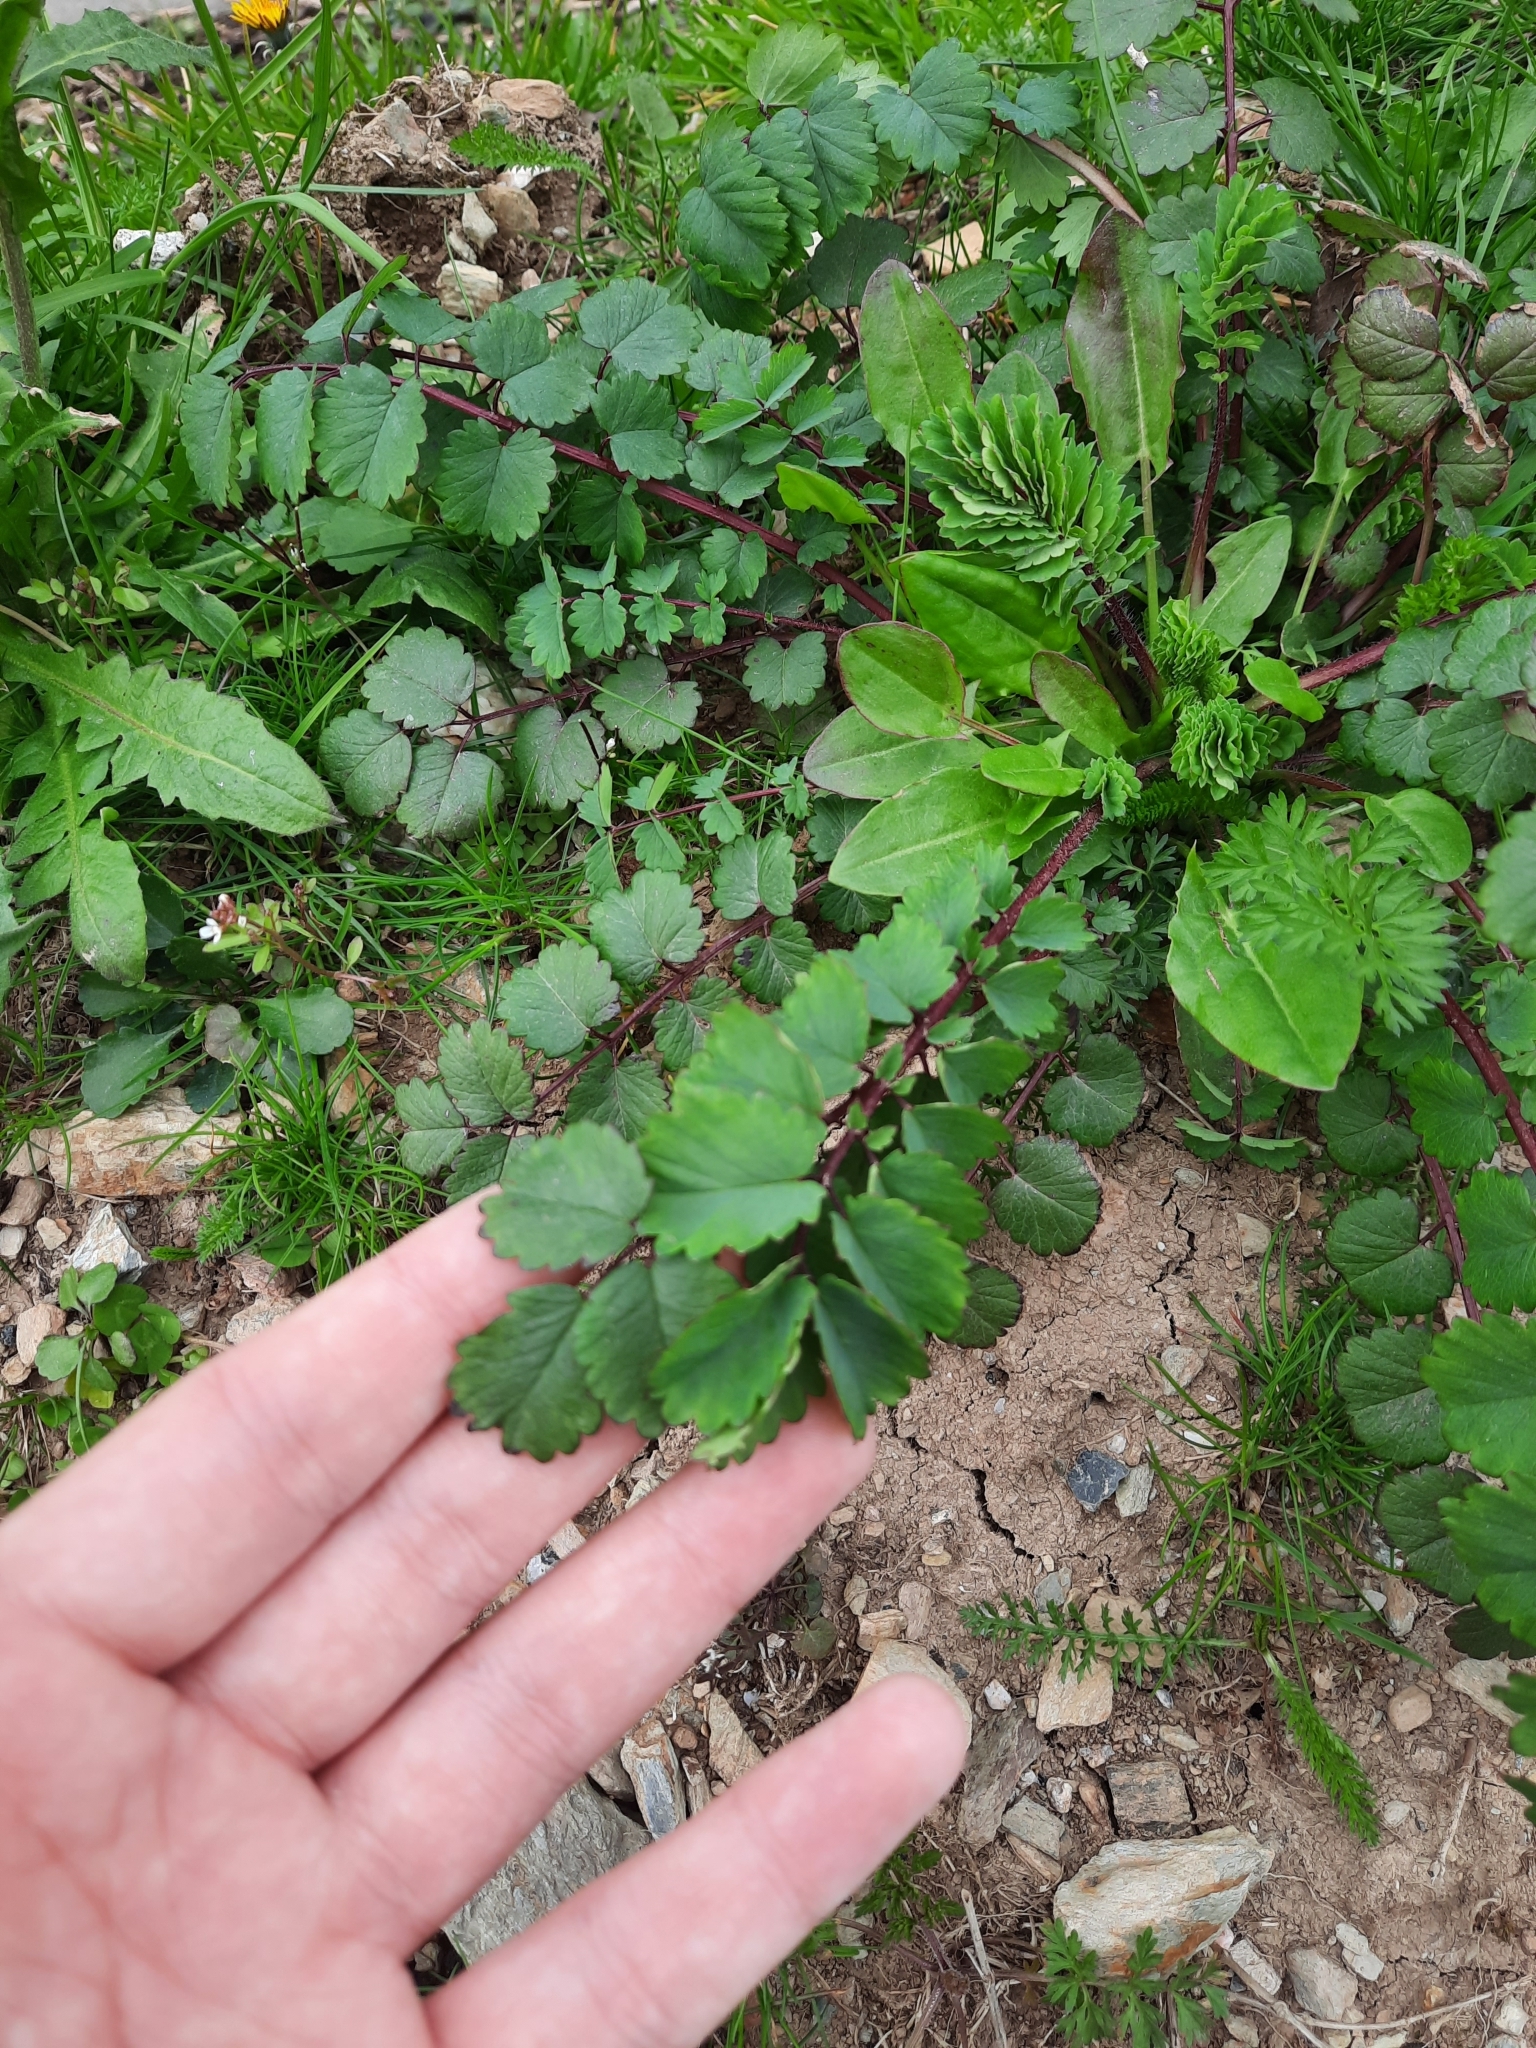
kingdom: Plantae
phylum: Tracheophyta
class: Magnoliopsida
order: Rosales
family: Rosaceae
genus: Poterium
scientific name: Poterium sanguisorba
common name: Salad burnet
